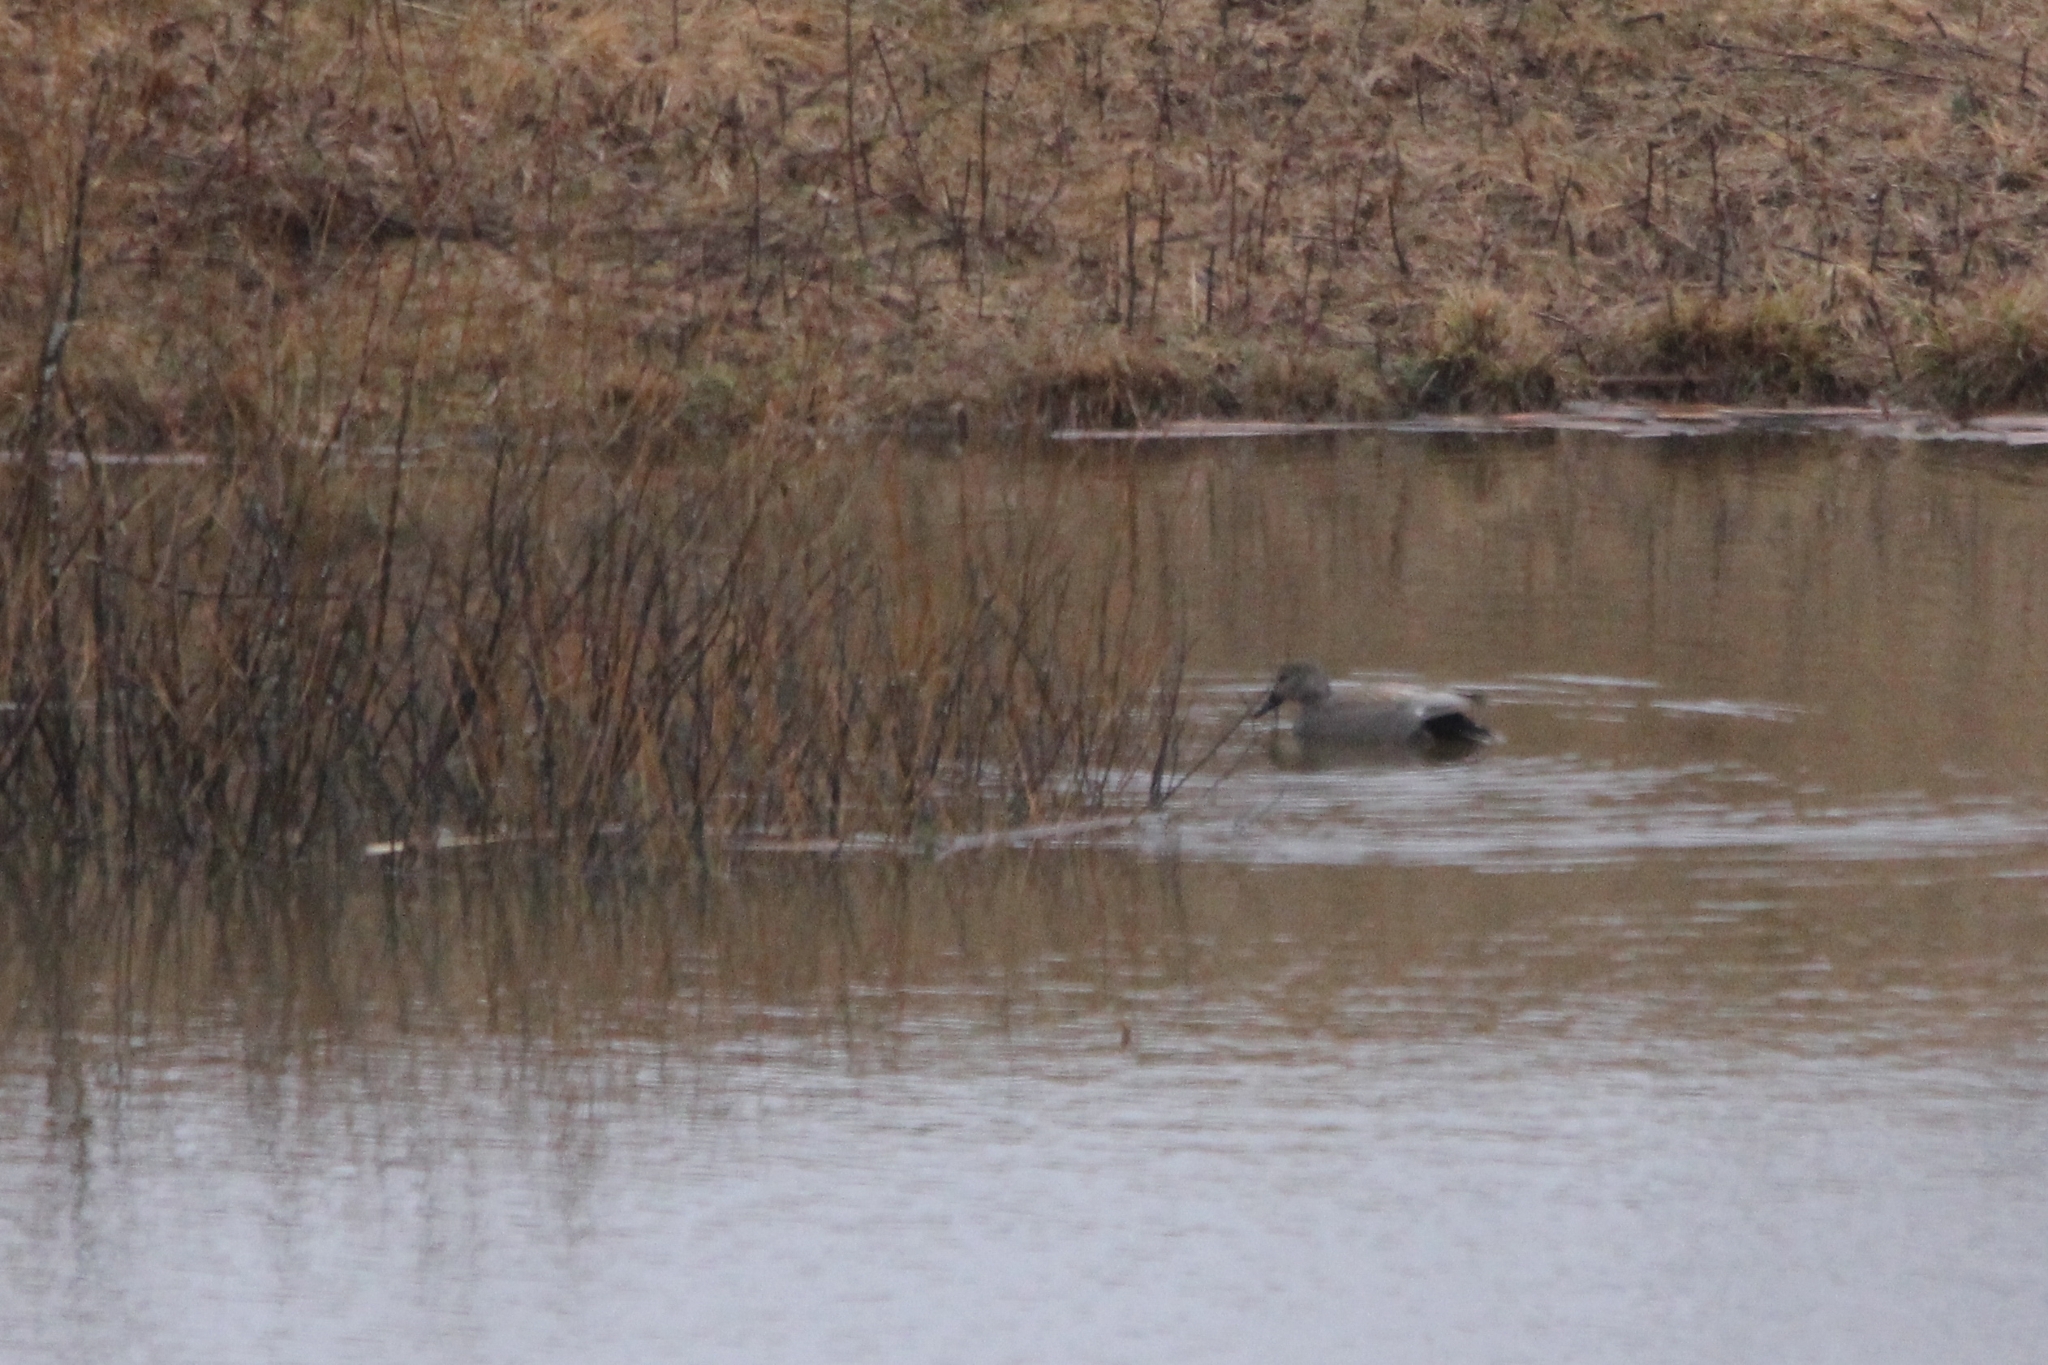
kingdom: Animalia
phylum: Chordata
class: Aves
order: Anseriformes
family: Anatidae
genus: Mareca
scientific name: Mareca strepera
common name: Gadwall
